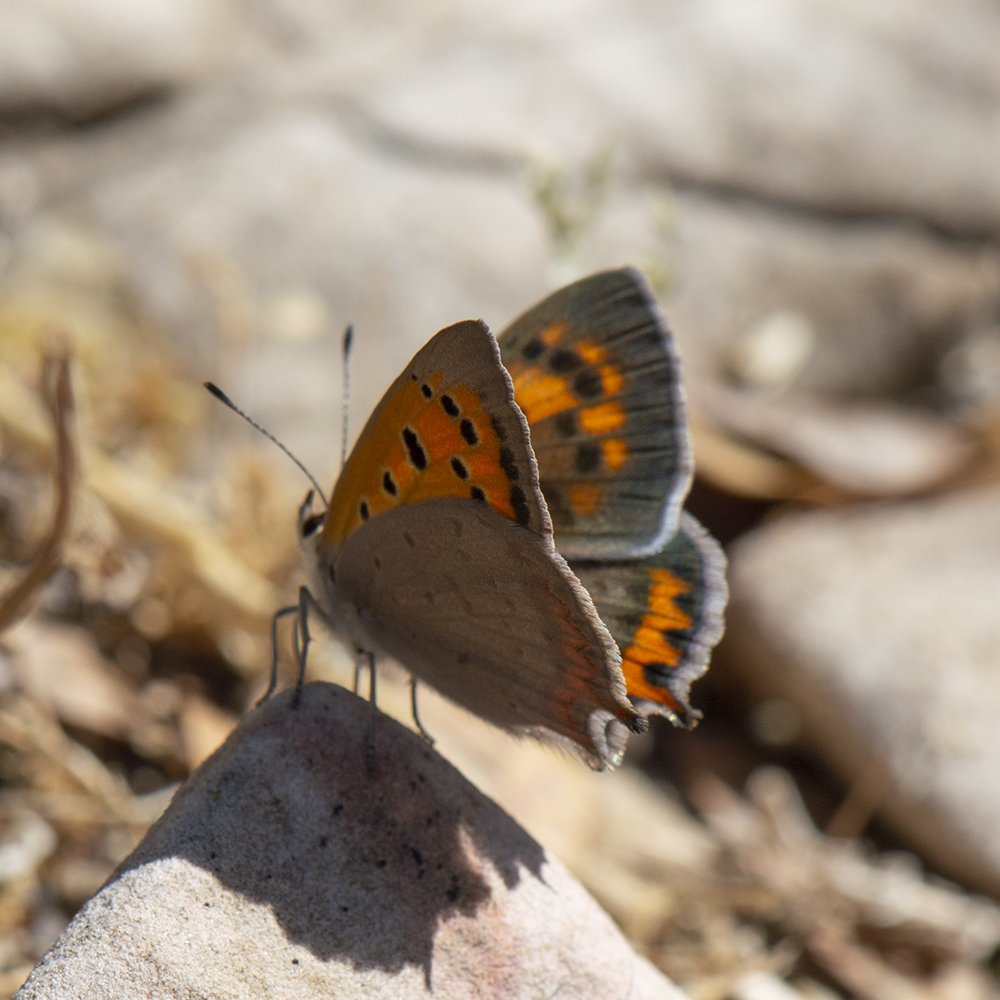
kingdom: Animalia
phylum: Arthropoda
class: Insecta
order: Lepidoptera
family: Lycaenidae
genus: Lycaena
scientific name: Lycaena phlaeas
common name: Small copper
